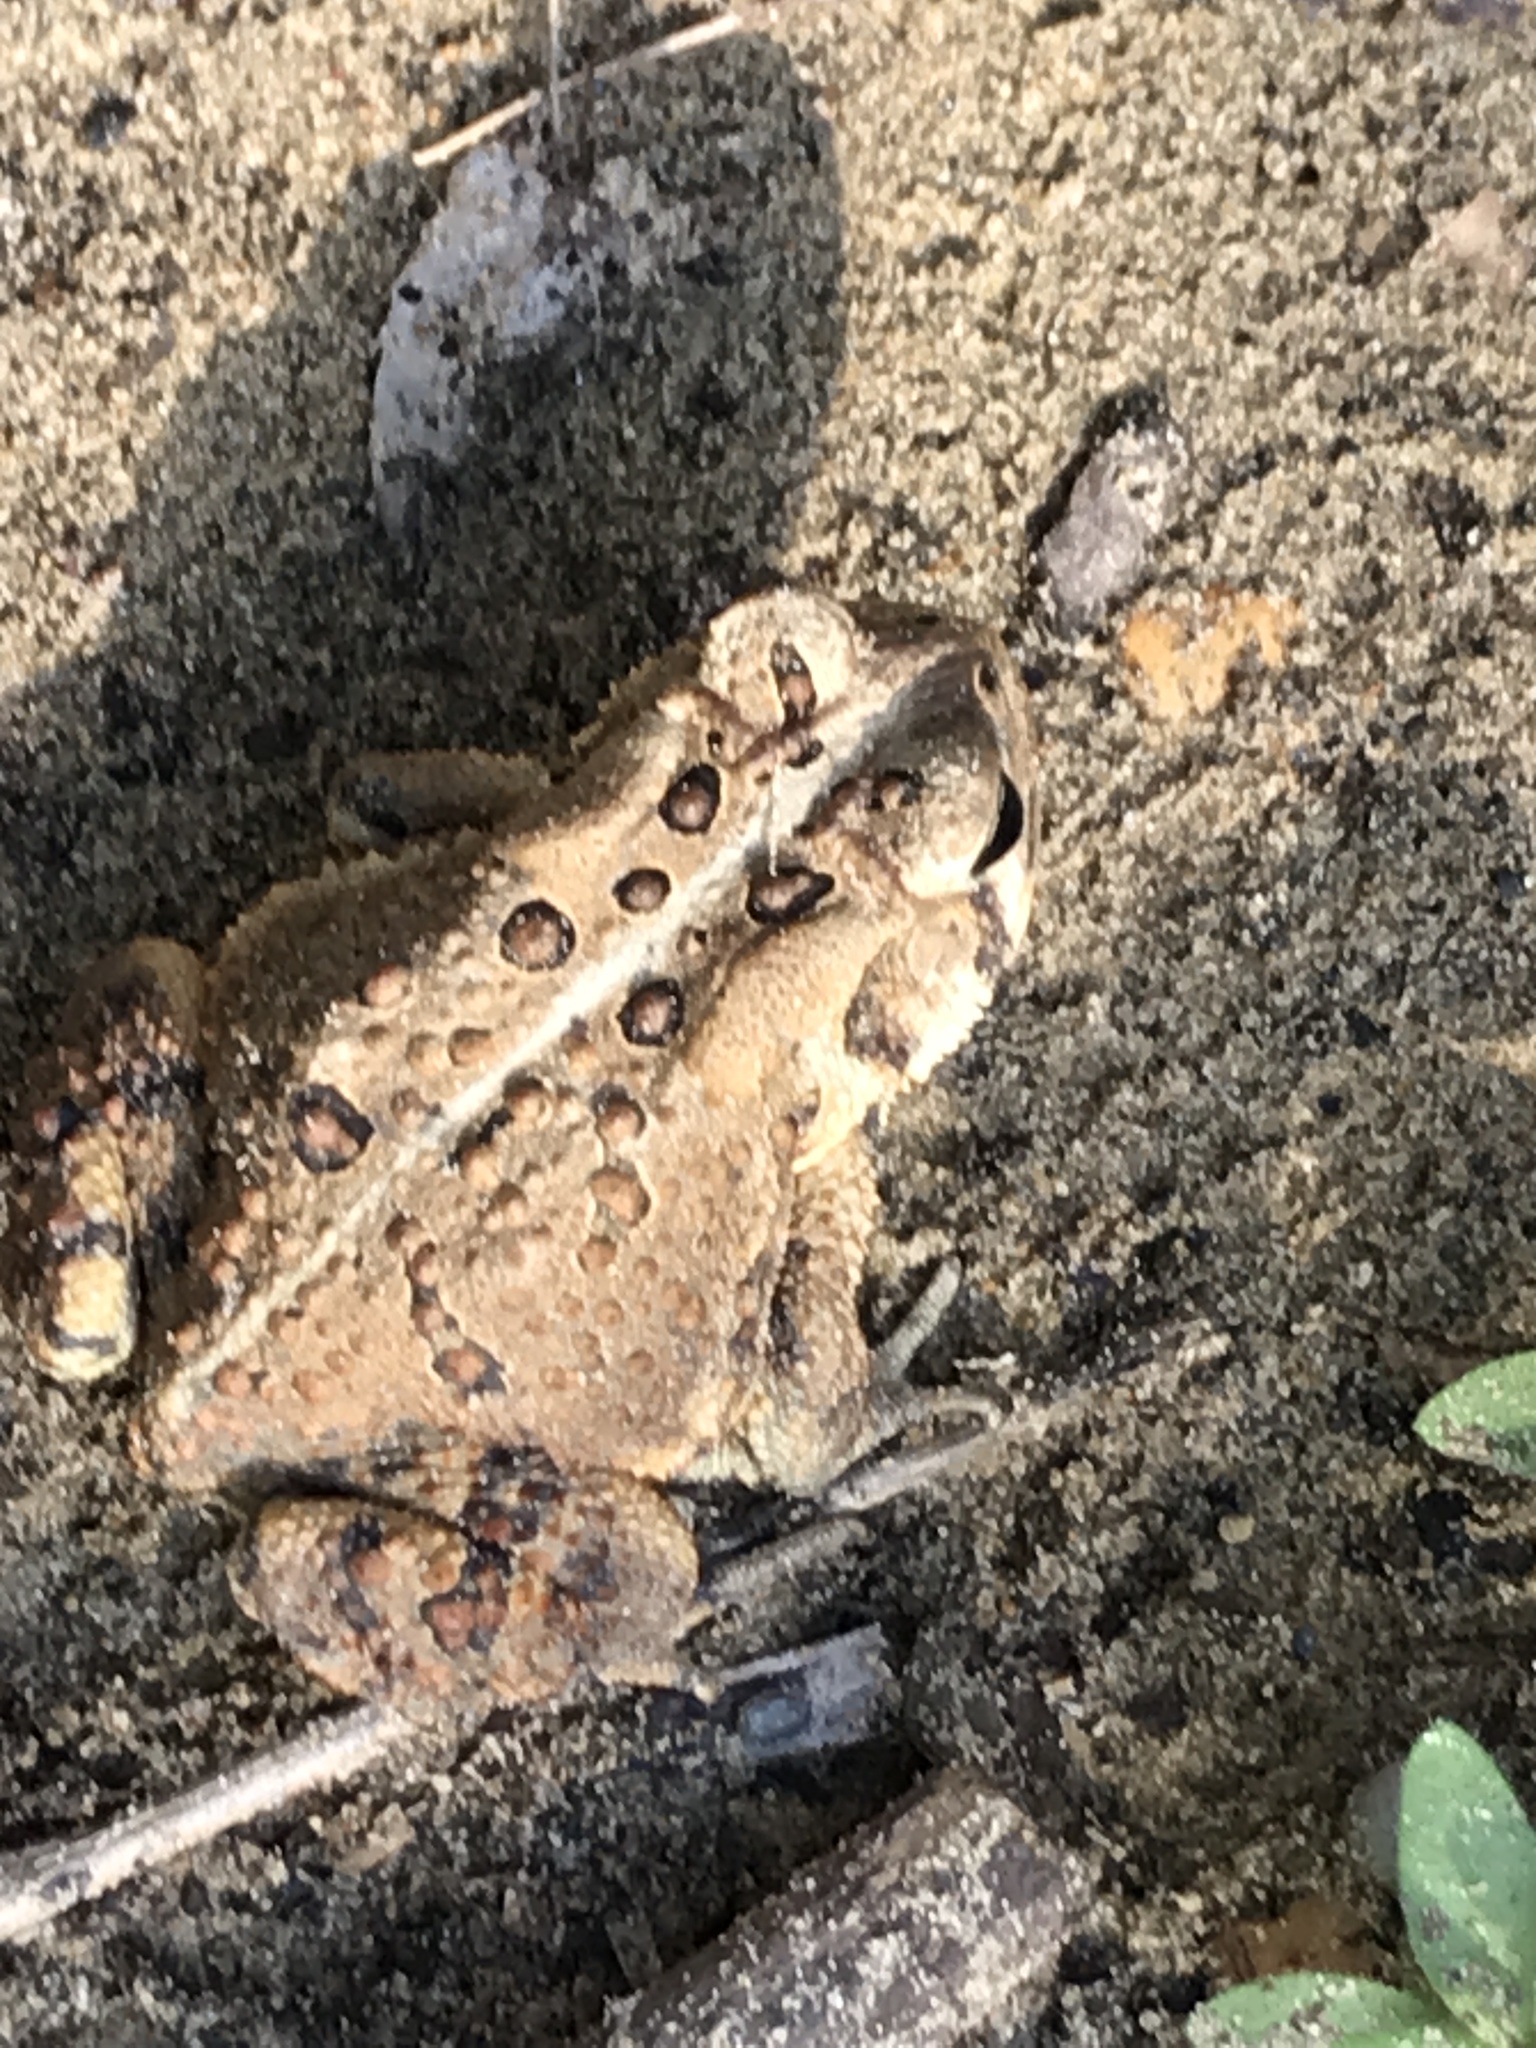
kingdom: Animalia
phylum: Chordata
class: Amphibia
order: Anura
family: Bufonidae
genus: Anaxyrus
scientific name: Anaxyrus americanus
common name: American toad
